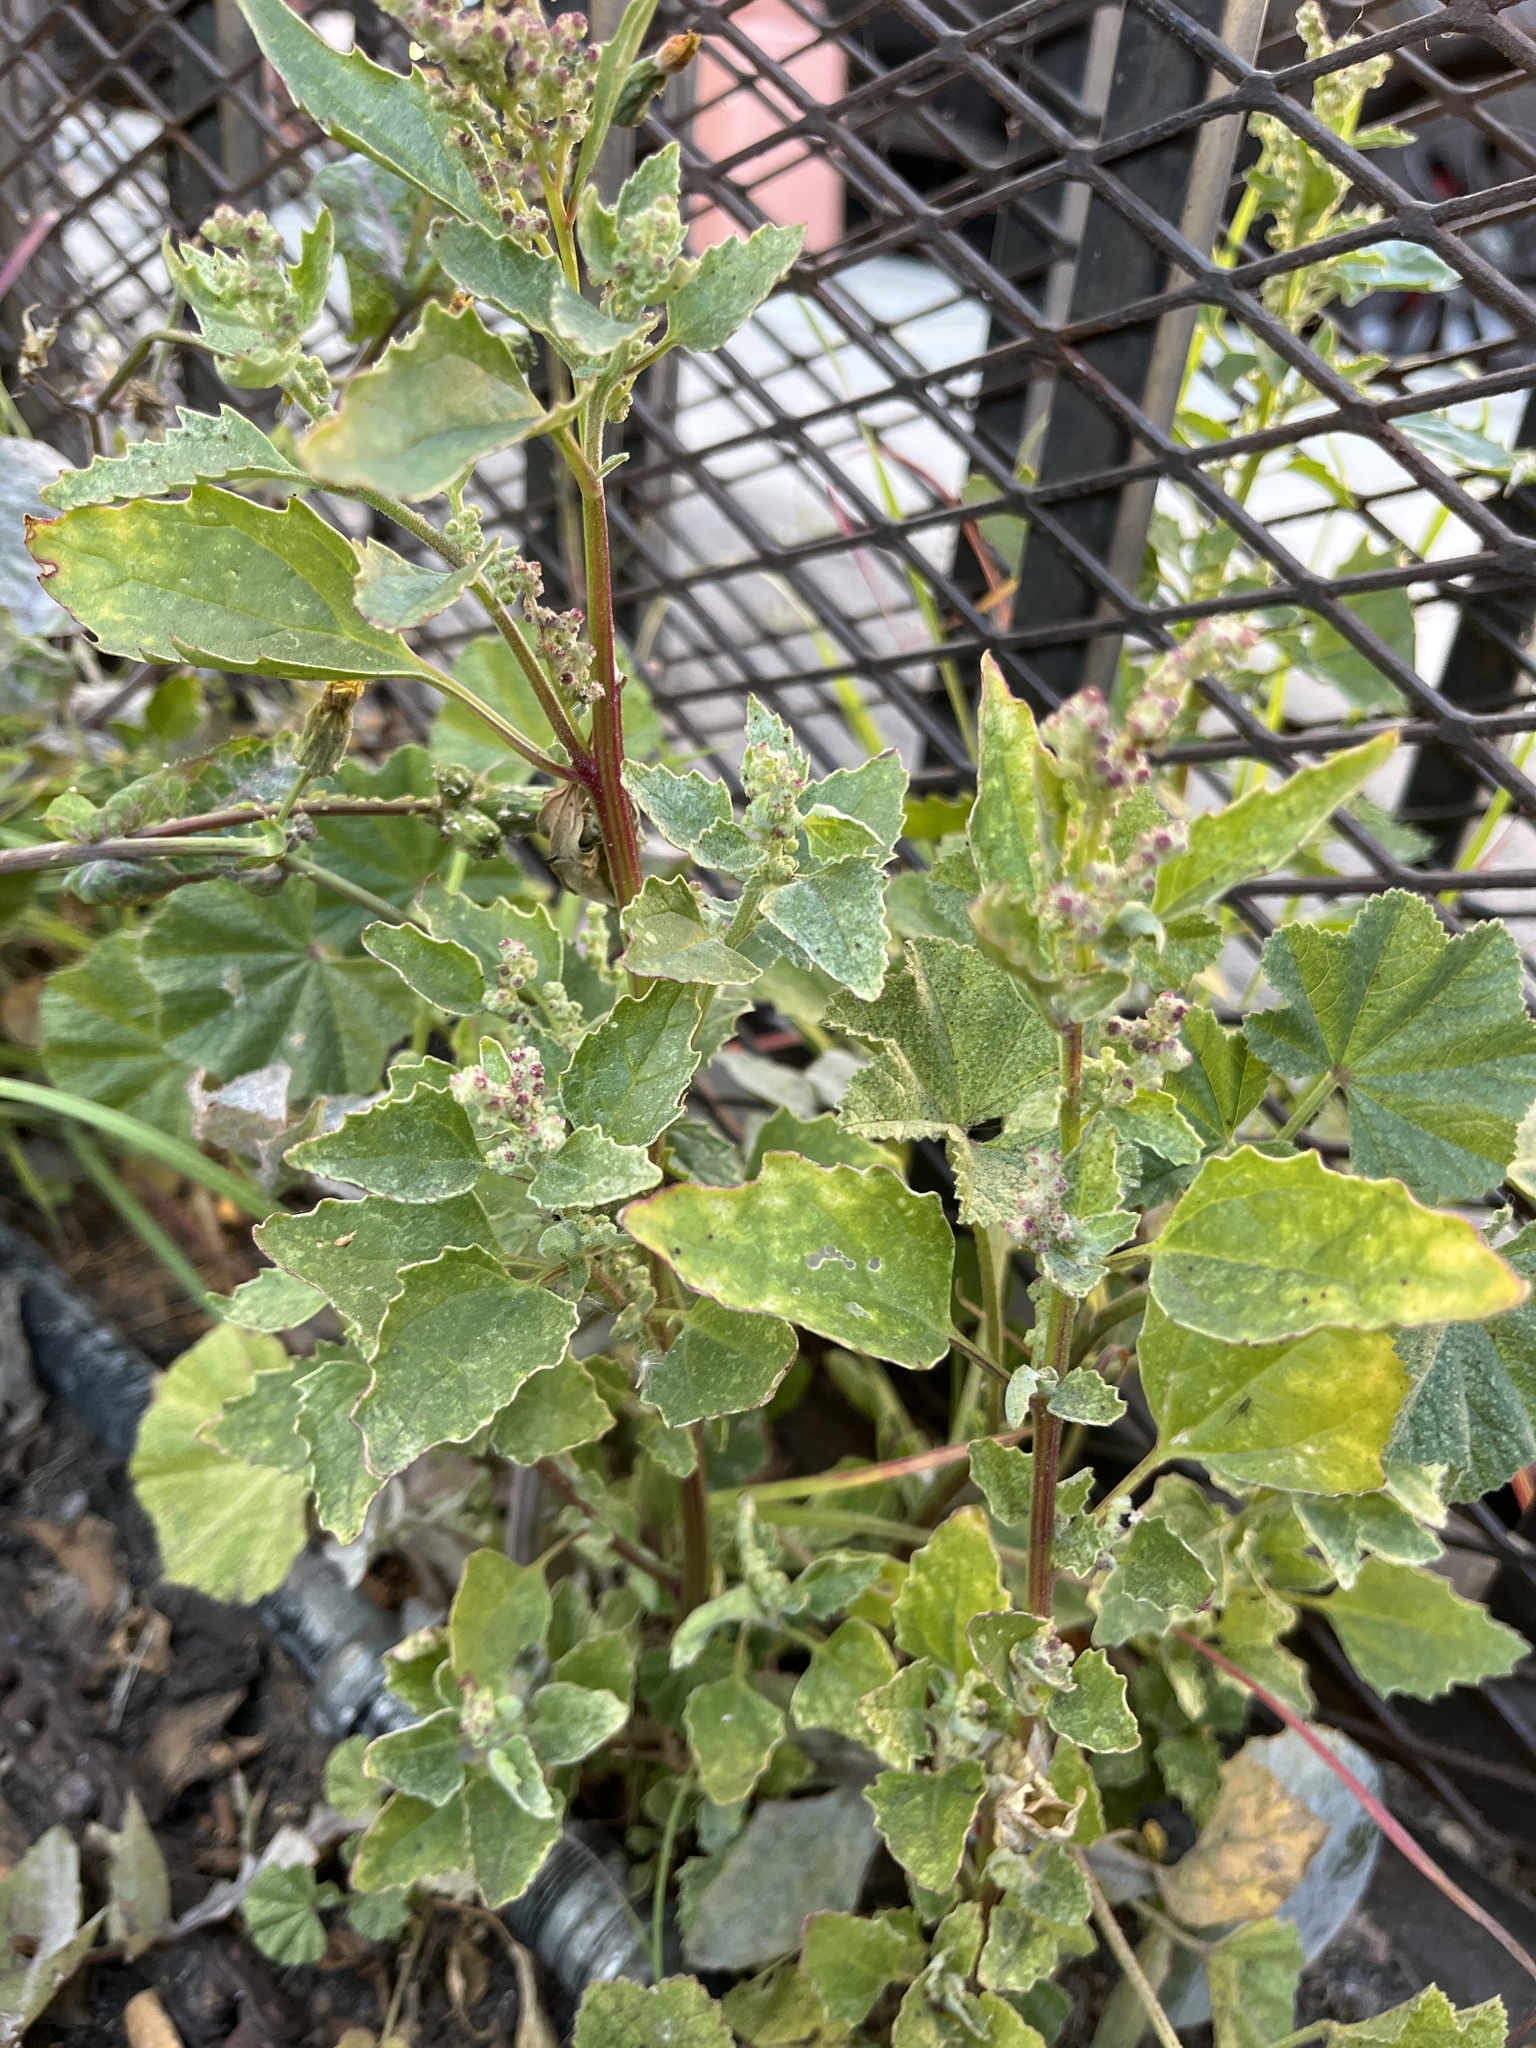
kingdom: Plantae
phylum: Tracheophyta
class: Magnoliopsida
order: Caryophyllales
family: Amaranthaceae
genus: Chenopodiastrum
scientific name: Chenopodiastrum murale
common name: Sowbane
